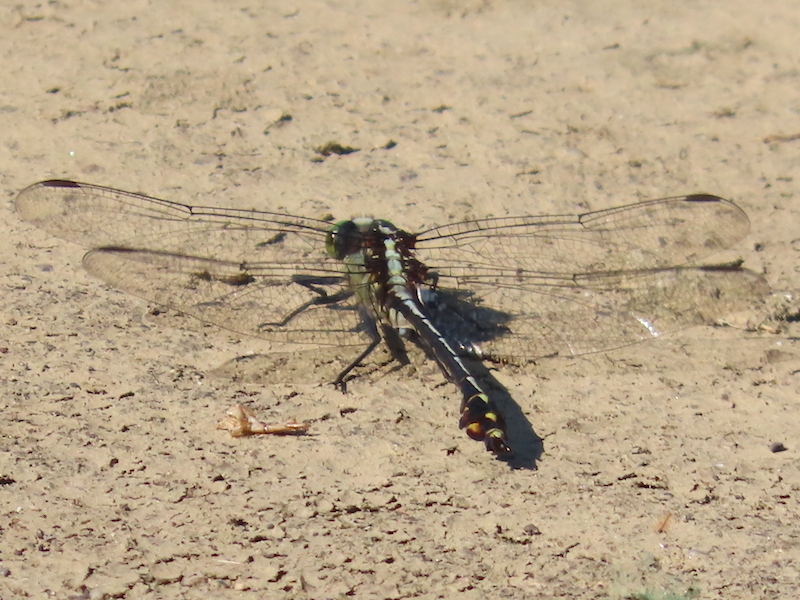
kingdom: Animalia
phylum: Arthropoda
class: Insecta
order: Odonata
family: Gomphidae
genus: Dromogomphus
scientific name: Dromogomphus spinosus
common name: Black-shouldered spinyleg
